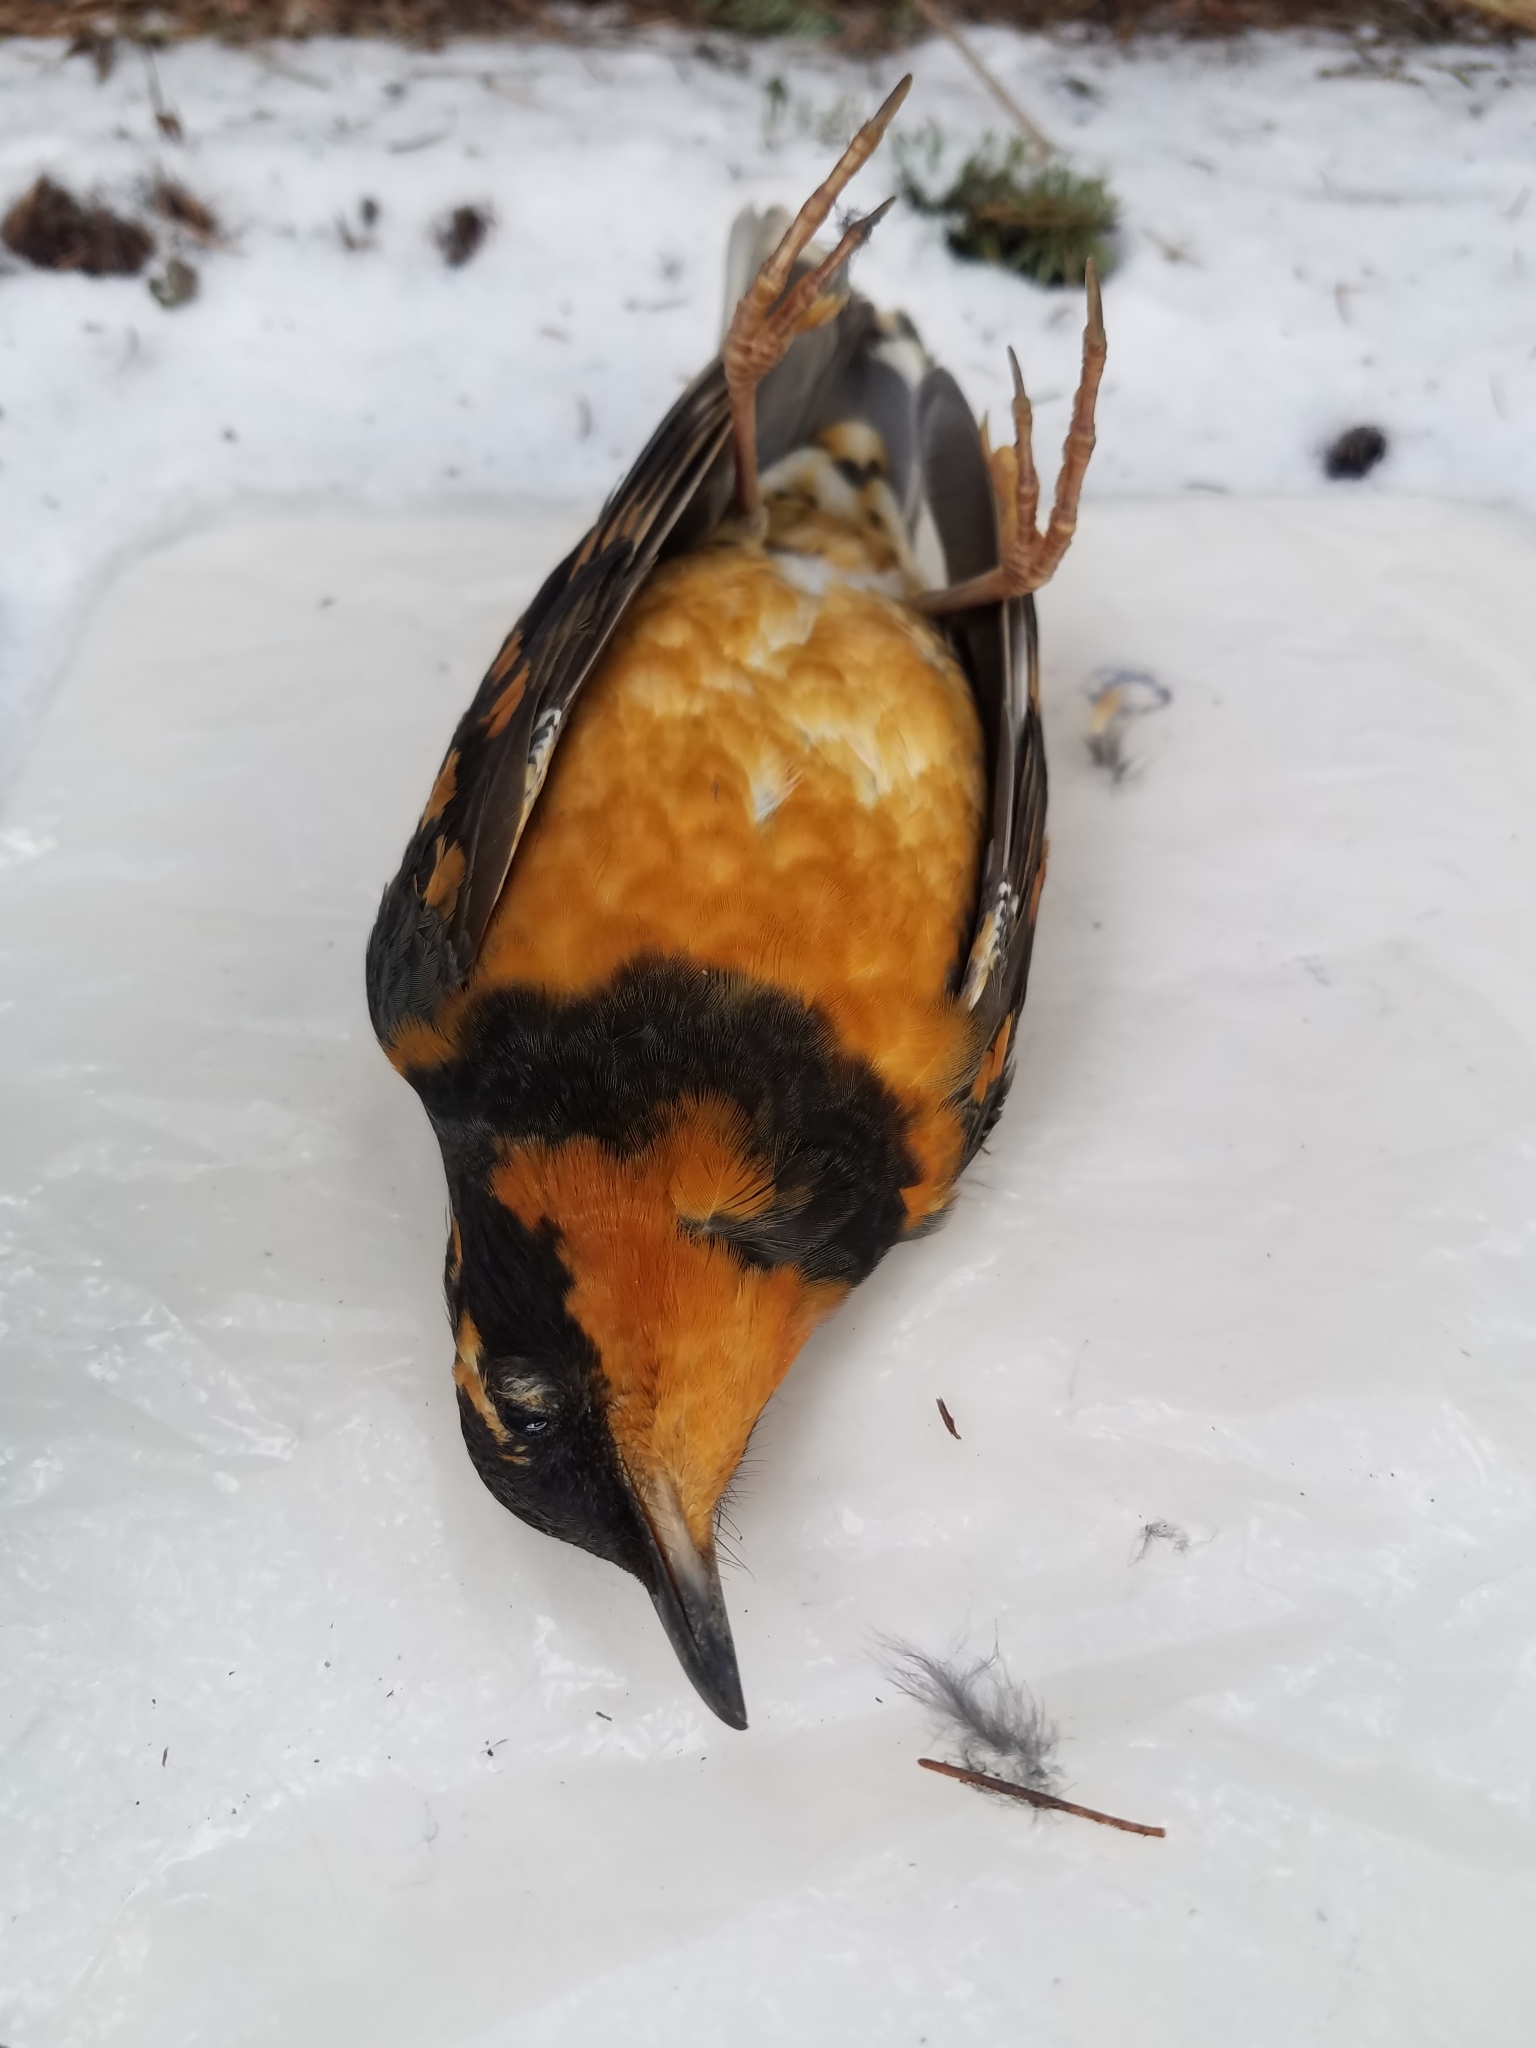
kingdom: Animalia
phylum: Chordata
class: Aves
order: Passeriformes
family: Turdidae
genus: Ixoreus
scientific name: Ixoreus naevius
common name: Varied thrush
